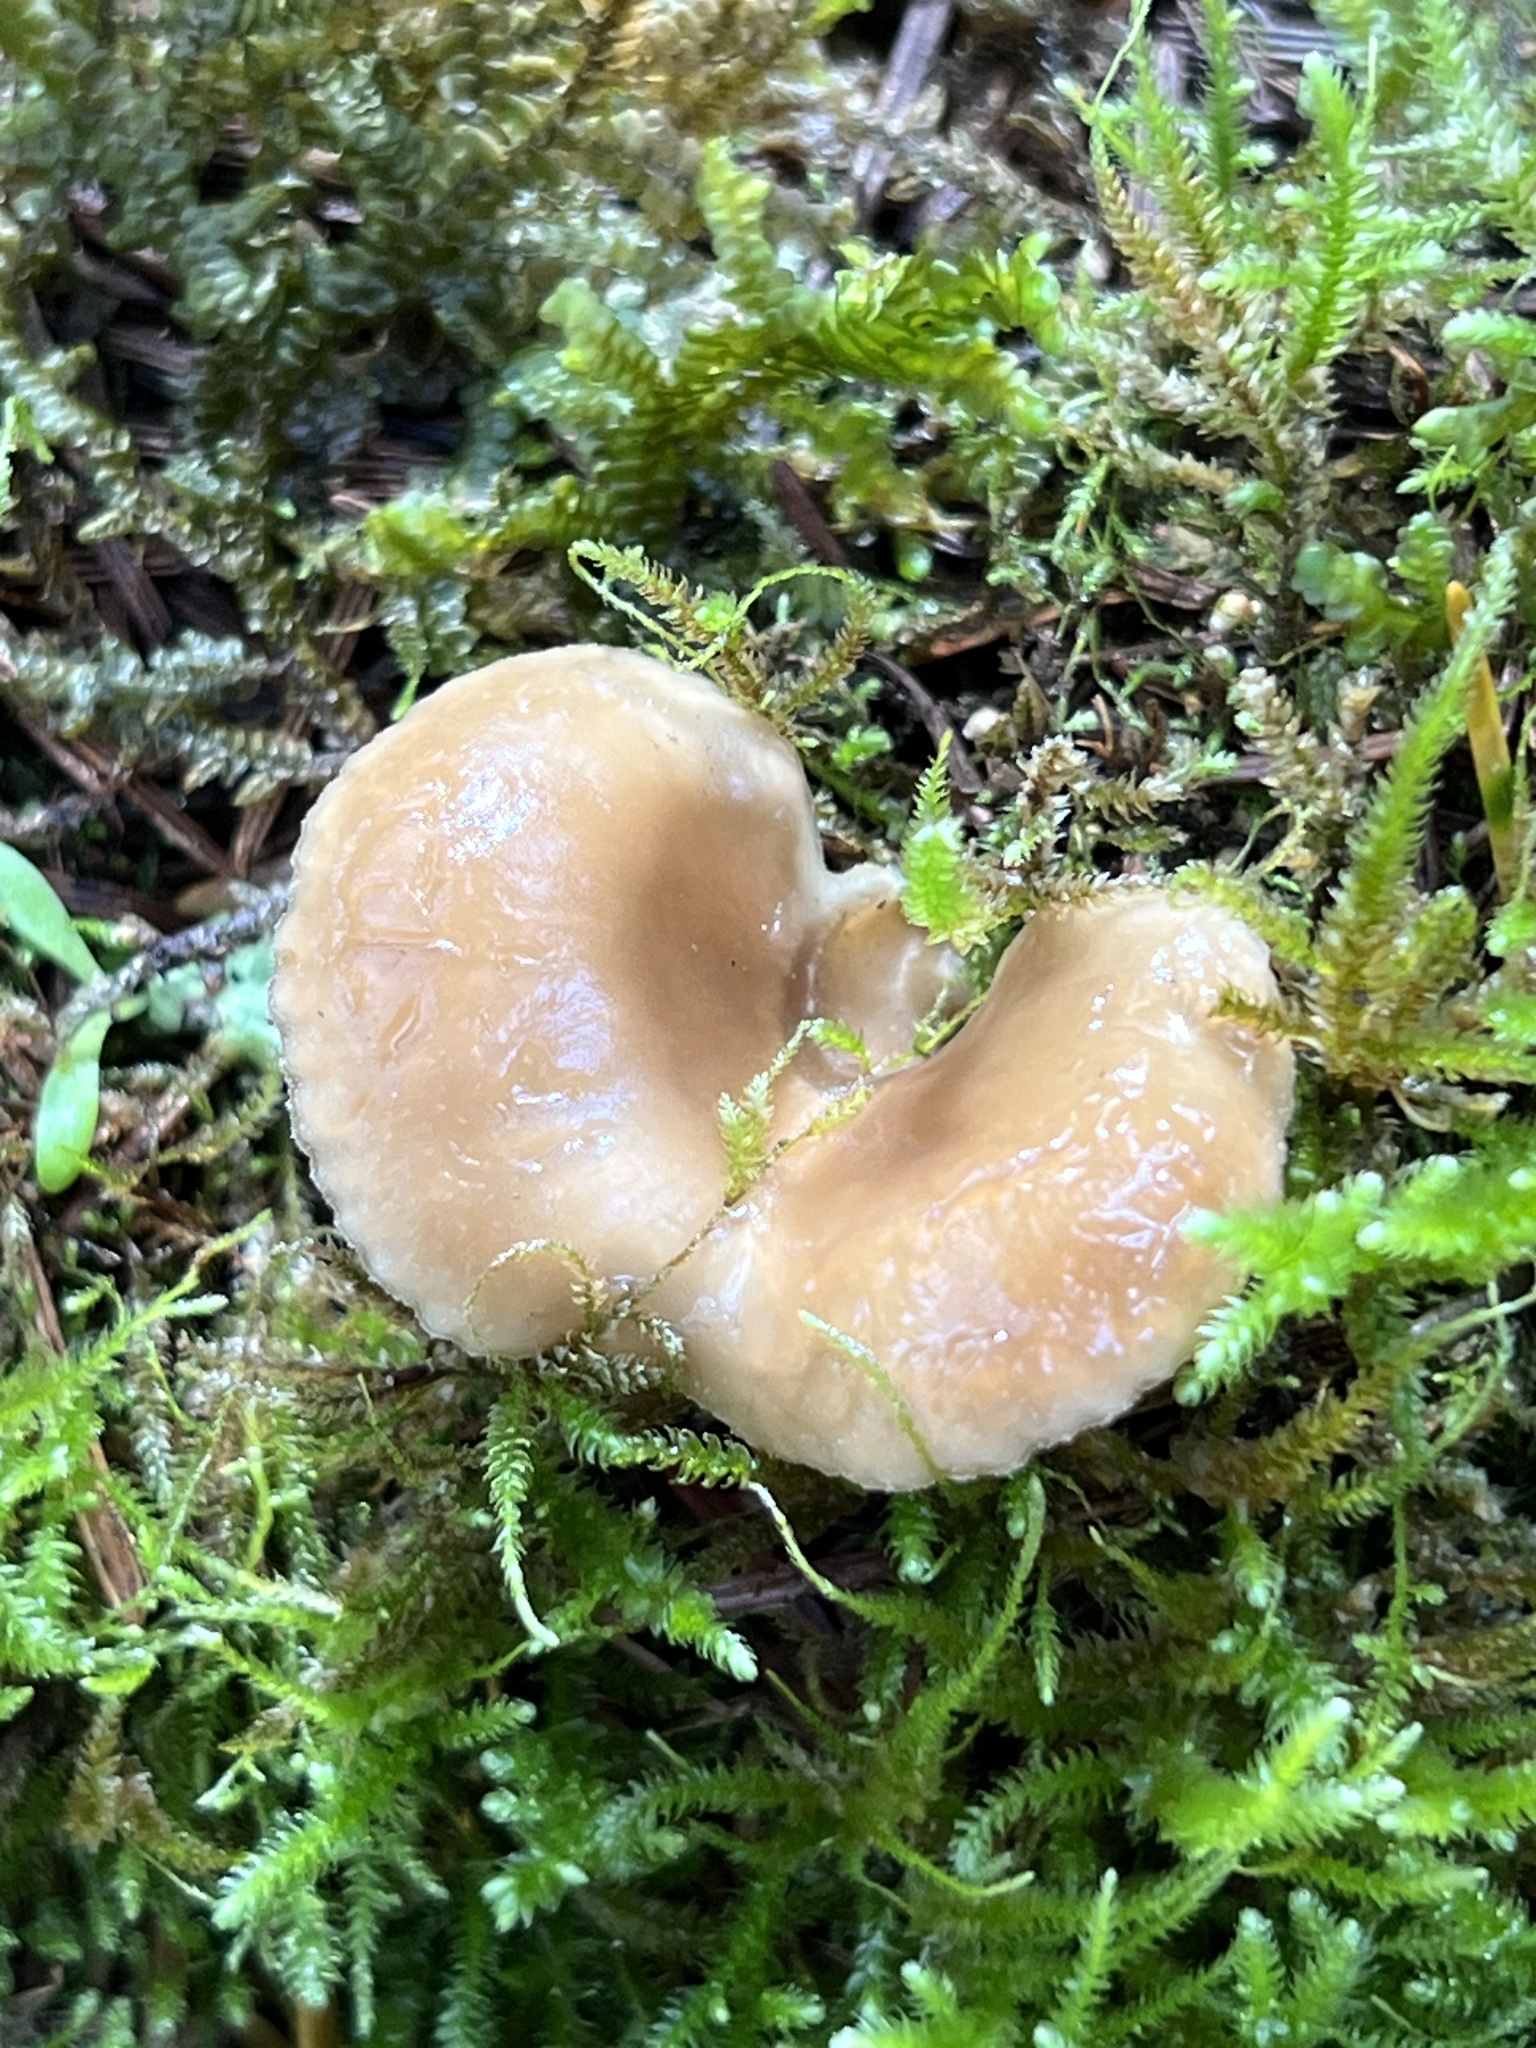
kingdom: Fungi
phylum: Basidiomycota
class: Agaricomycetes
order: Agaricales
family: Pleurotaceae
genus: Hohenbuehelia
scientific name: Hohenbuehelia auriscalpium
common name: Spatula oyster
